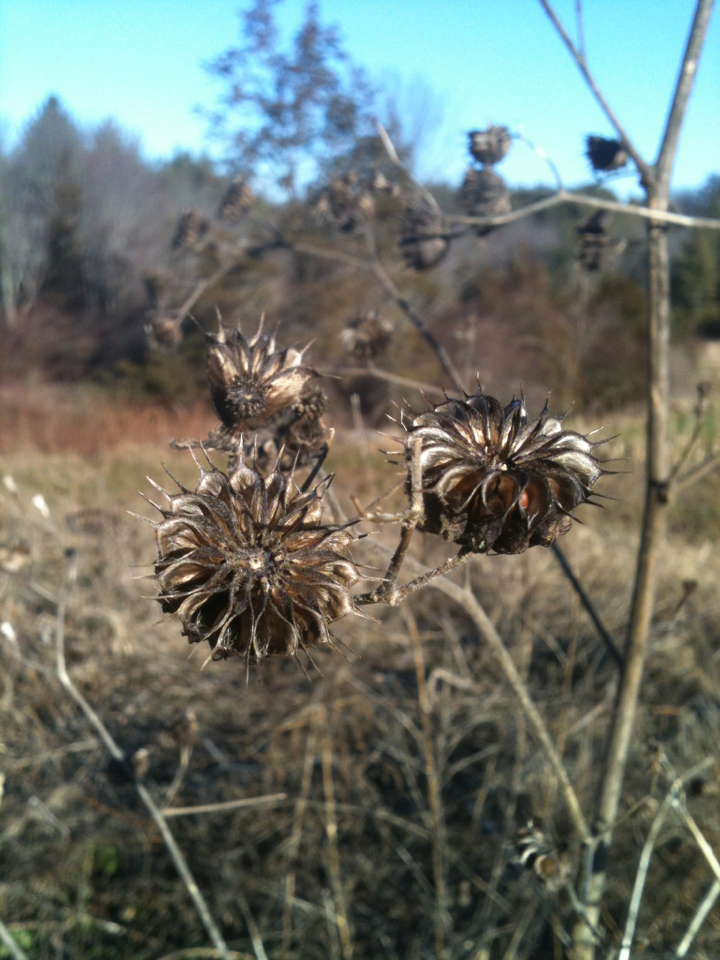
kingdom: Plantae
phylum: Tracheophyta
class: Magnoliopsida
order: Malvales
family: Malvaceae
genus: Abutilon
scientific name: Abutilon theophrasti
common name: Velvetleaf
